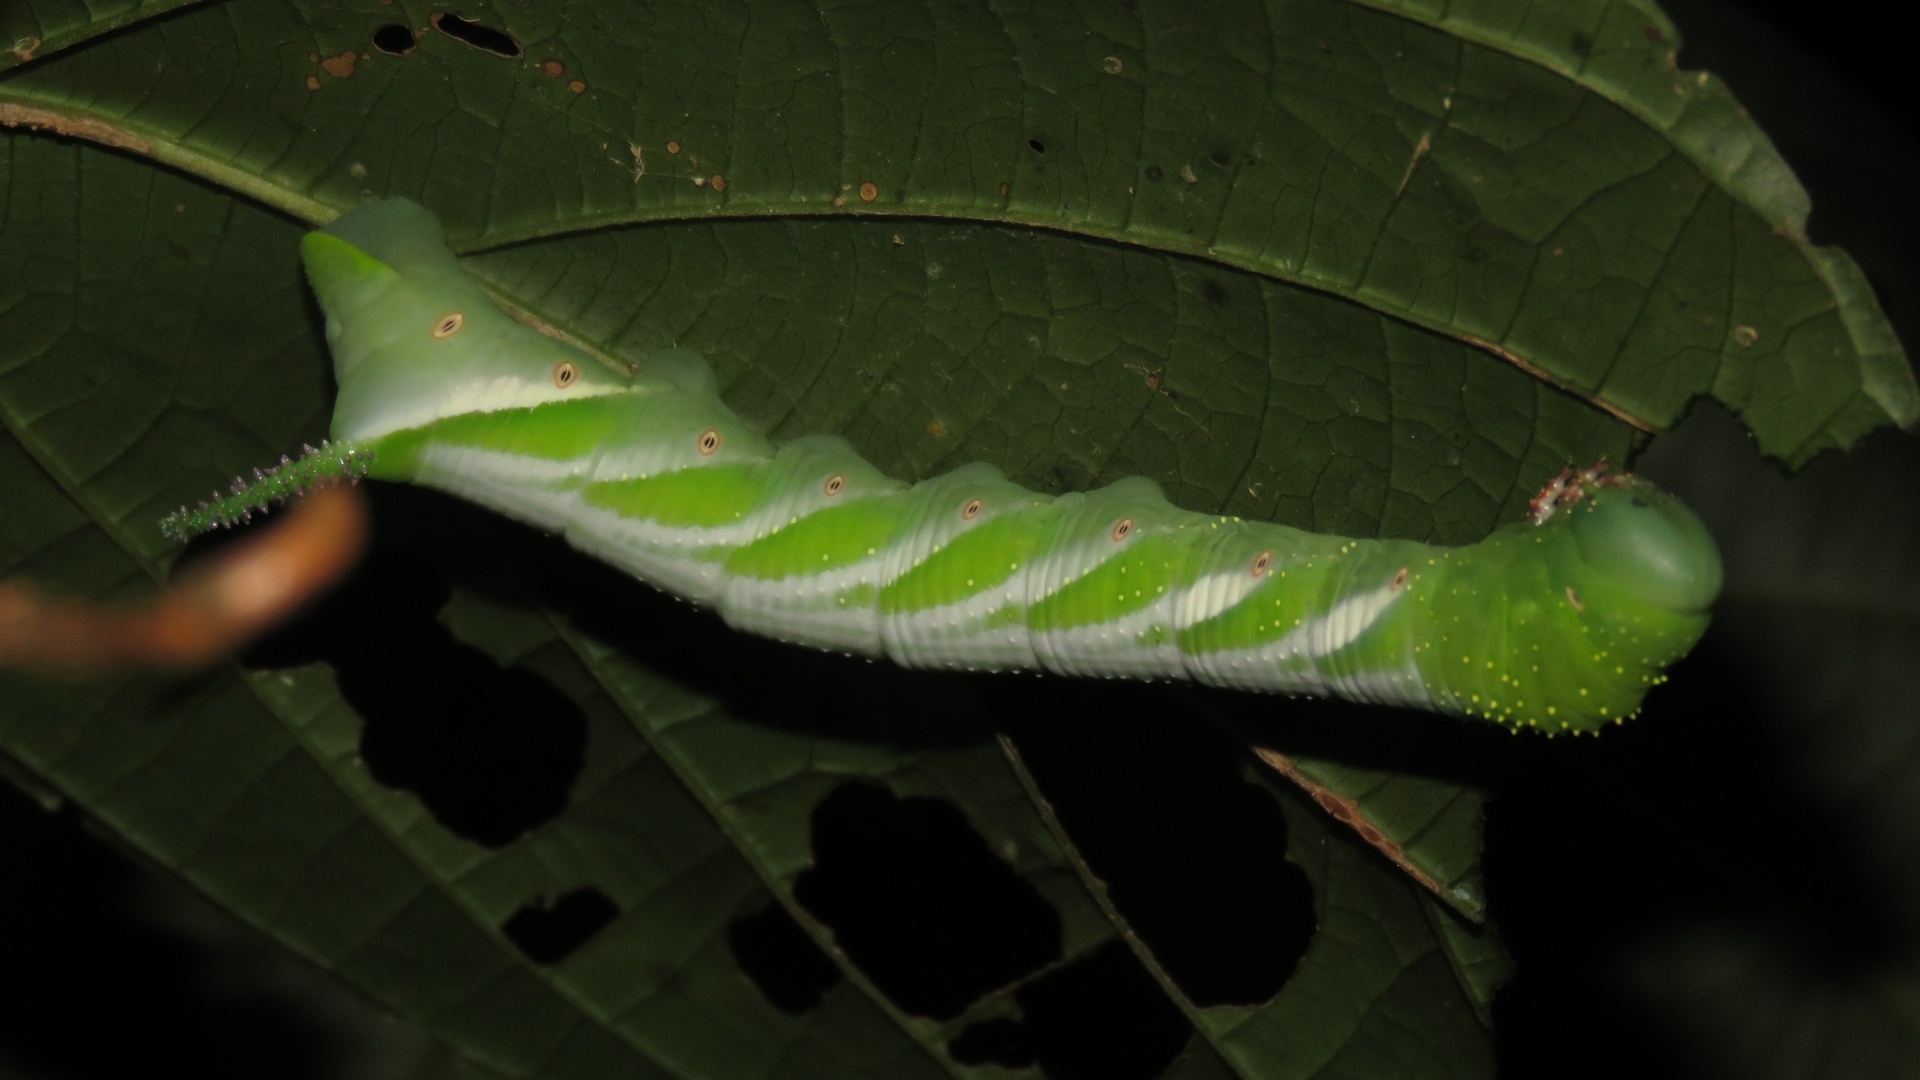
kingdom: Animalia
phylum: Arthropoda
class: Insecta
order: Lepidoptera
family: Sphingidae
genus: Manduca
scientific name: Manduca florestan
